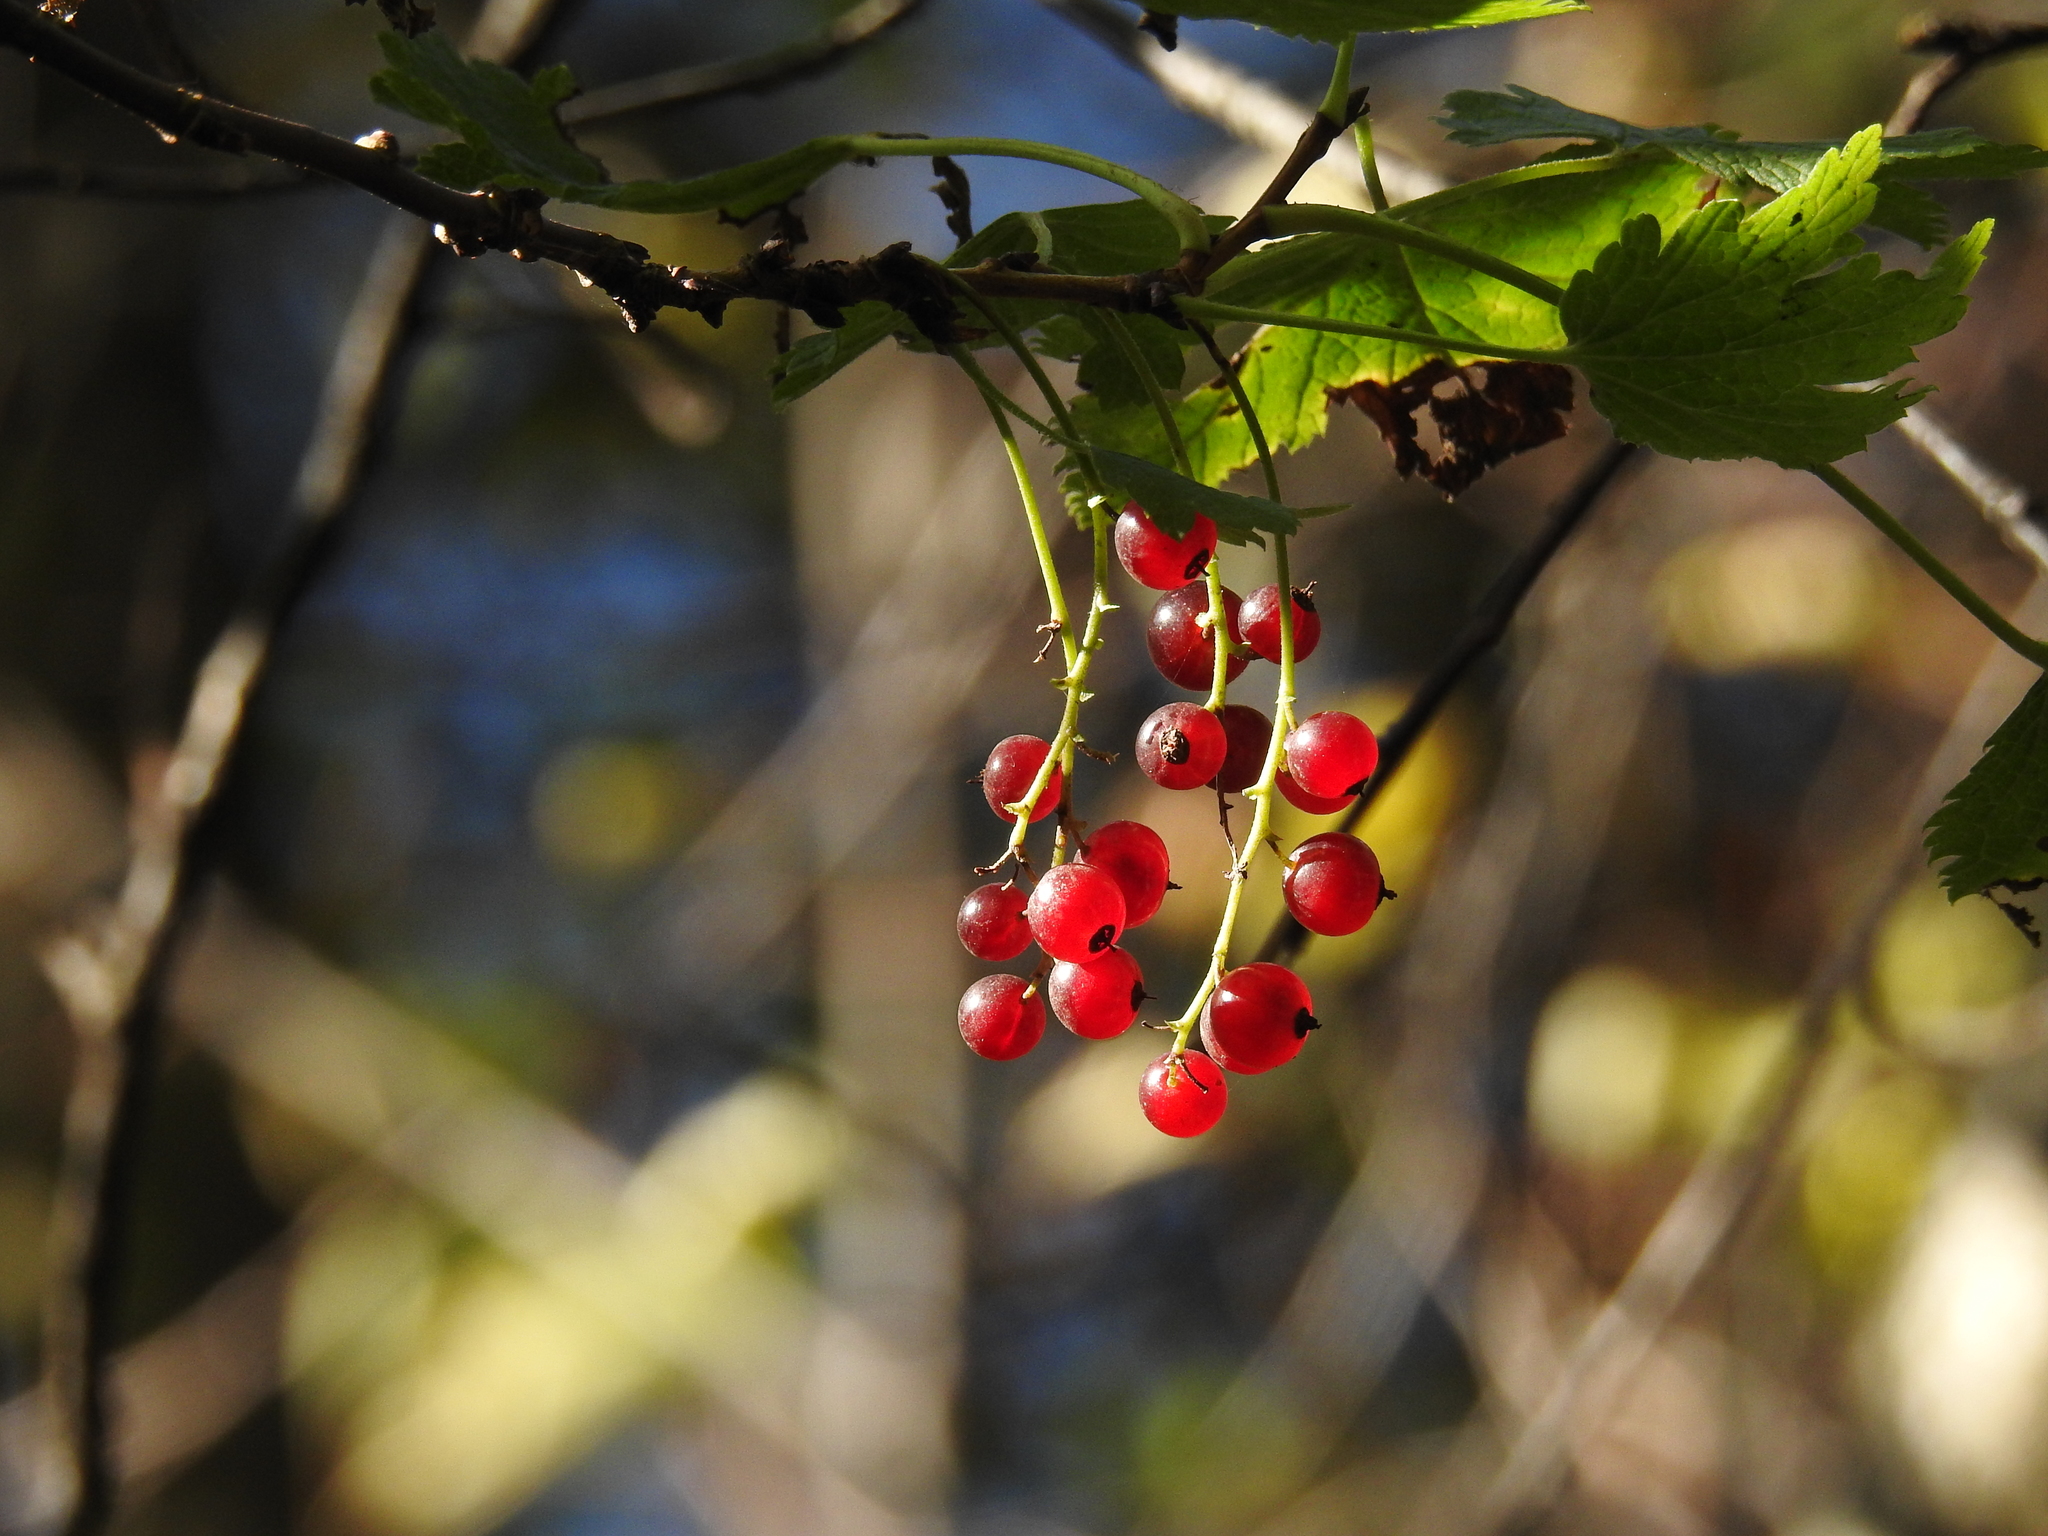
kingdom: Plantae
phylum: Tracheophyta
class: Magnoliopsida
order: Saxifragales
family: Grossulariaceae
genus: Ribes
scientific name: Ribes rubrum
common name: Red currant
